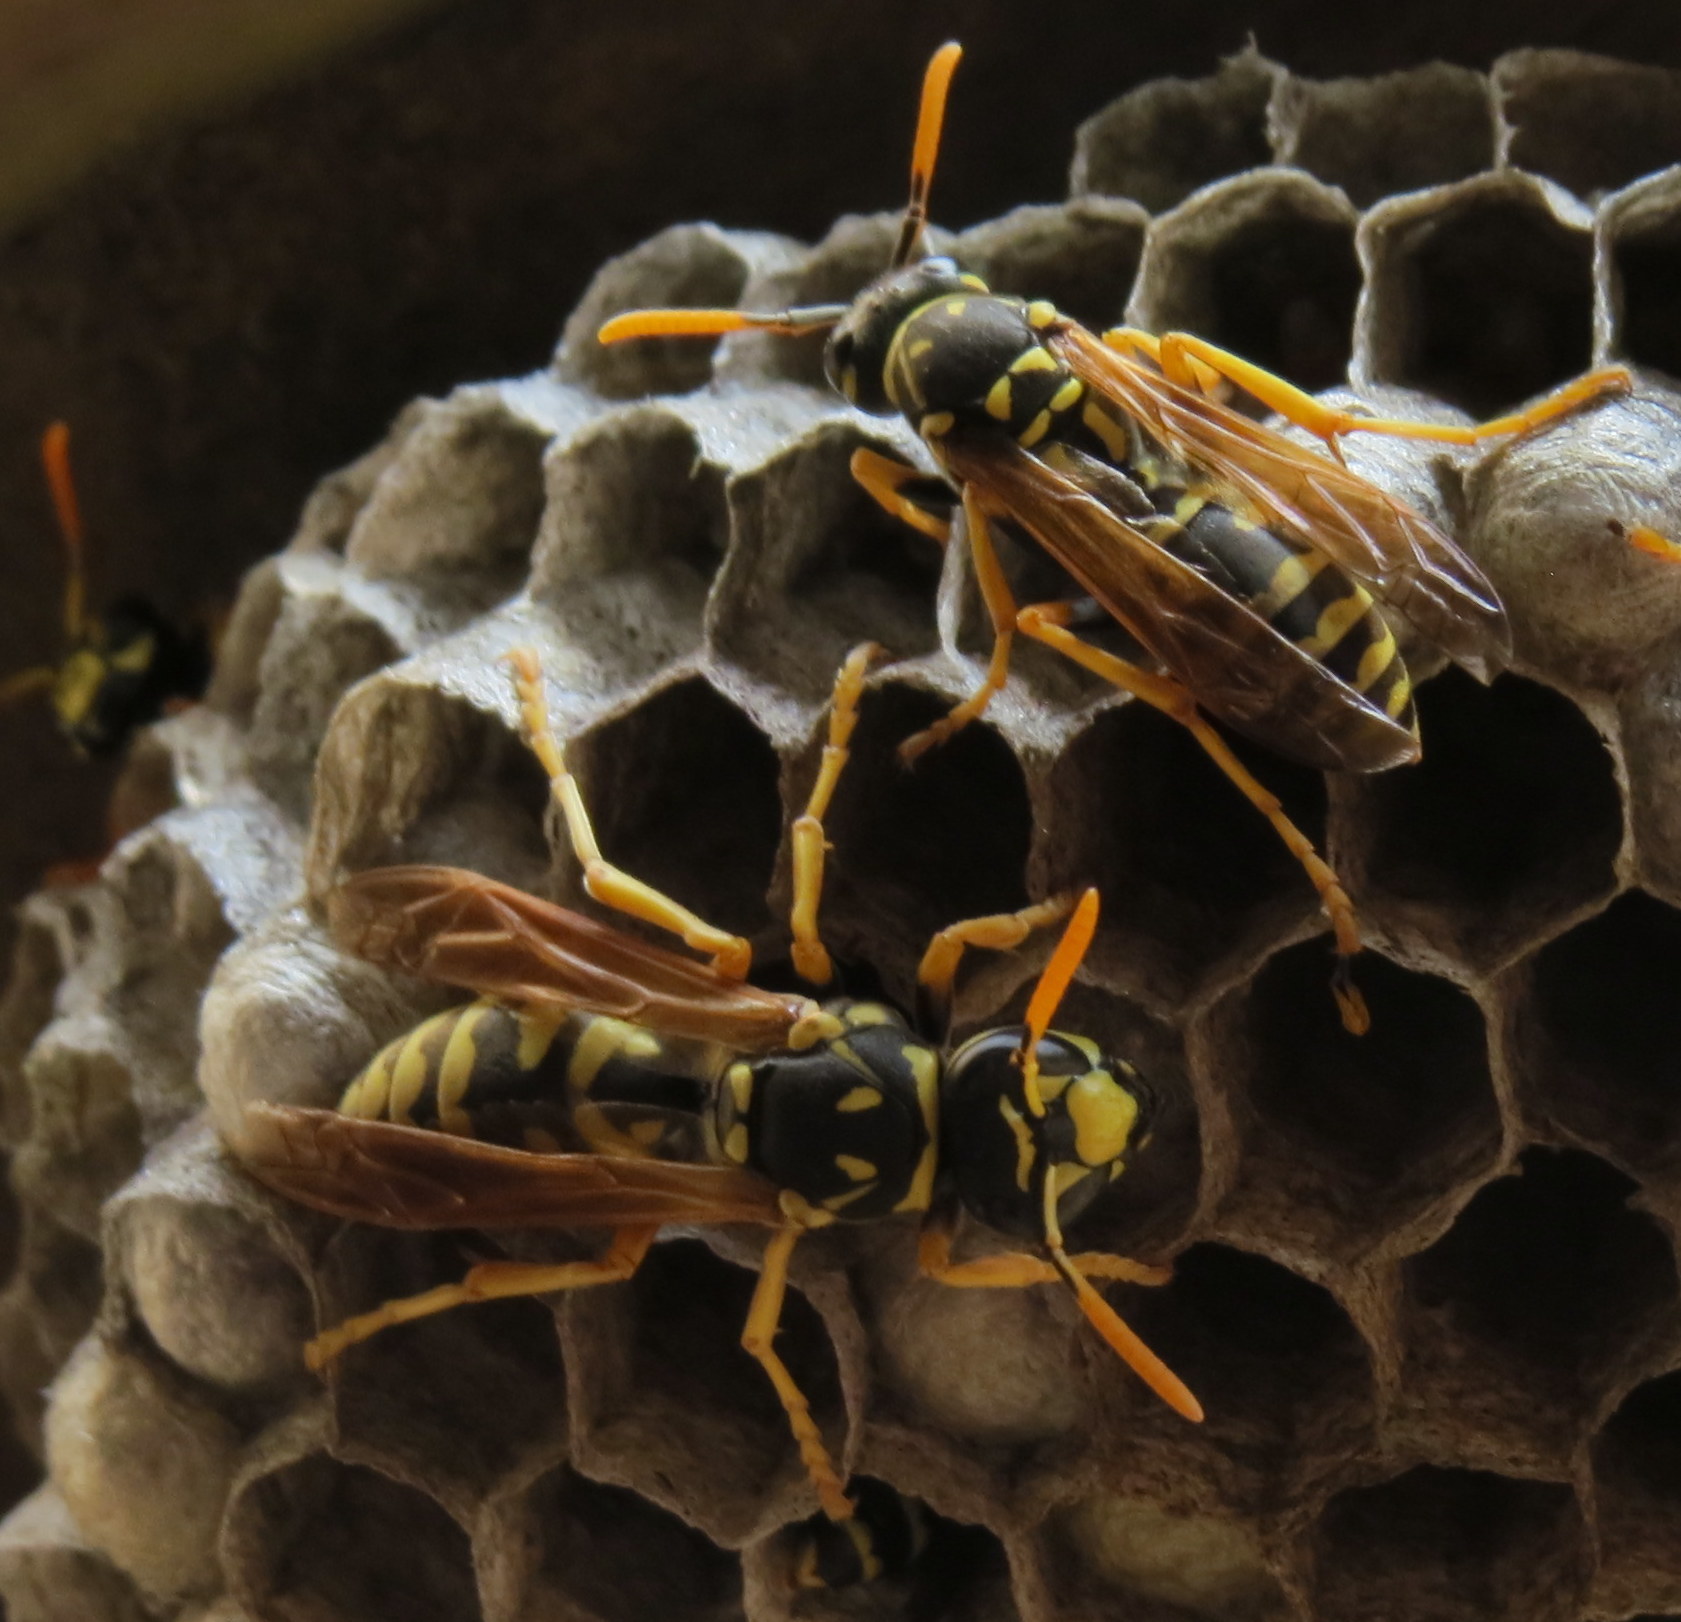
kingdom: Animalia
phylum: Arthropoda
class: Insecta
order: Hymenoptera
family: Eumenidae
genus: Polistes
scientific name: Polistes dominula
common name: Paper wasp
